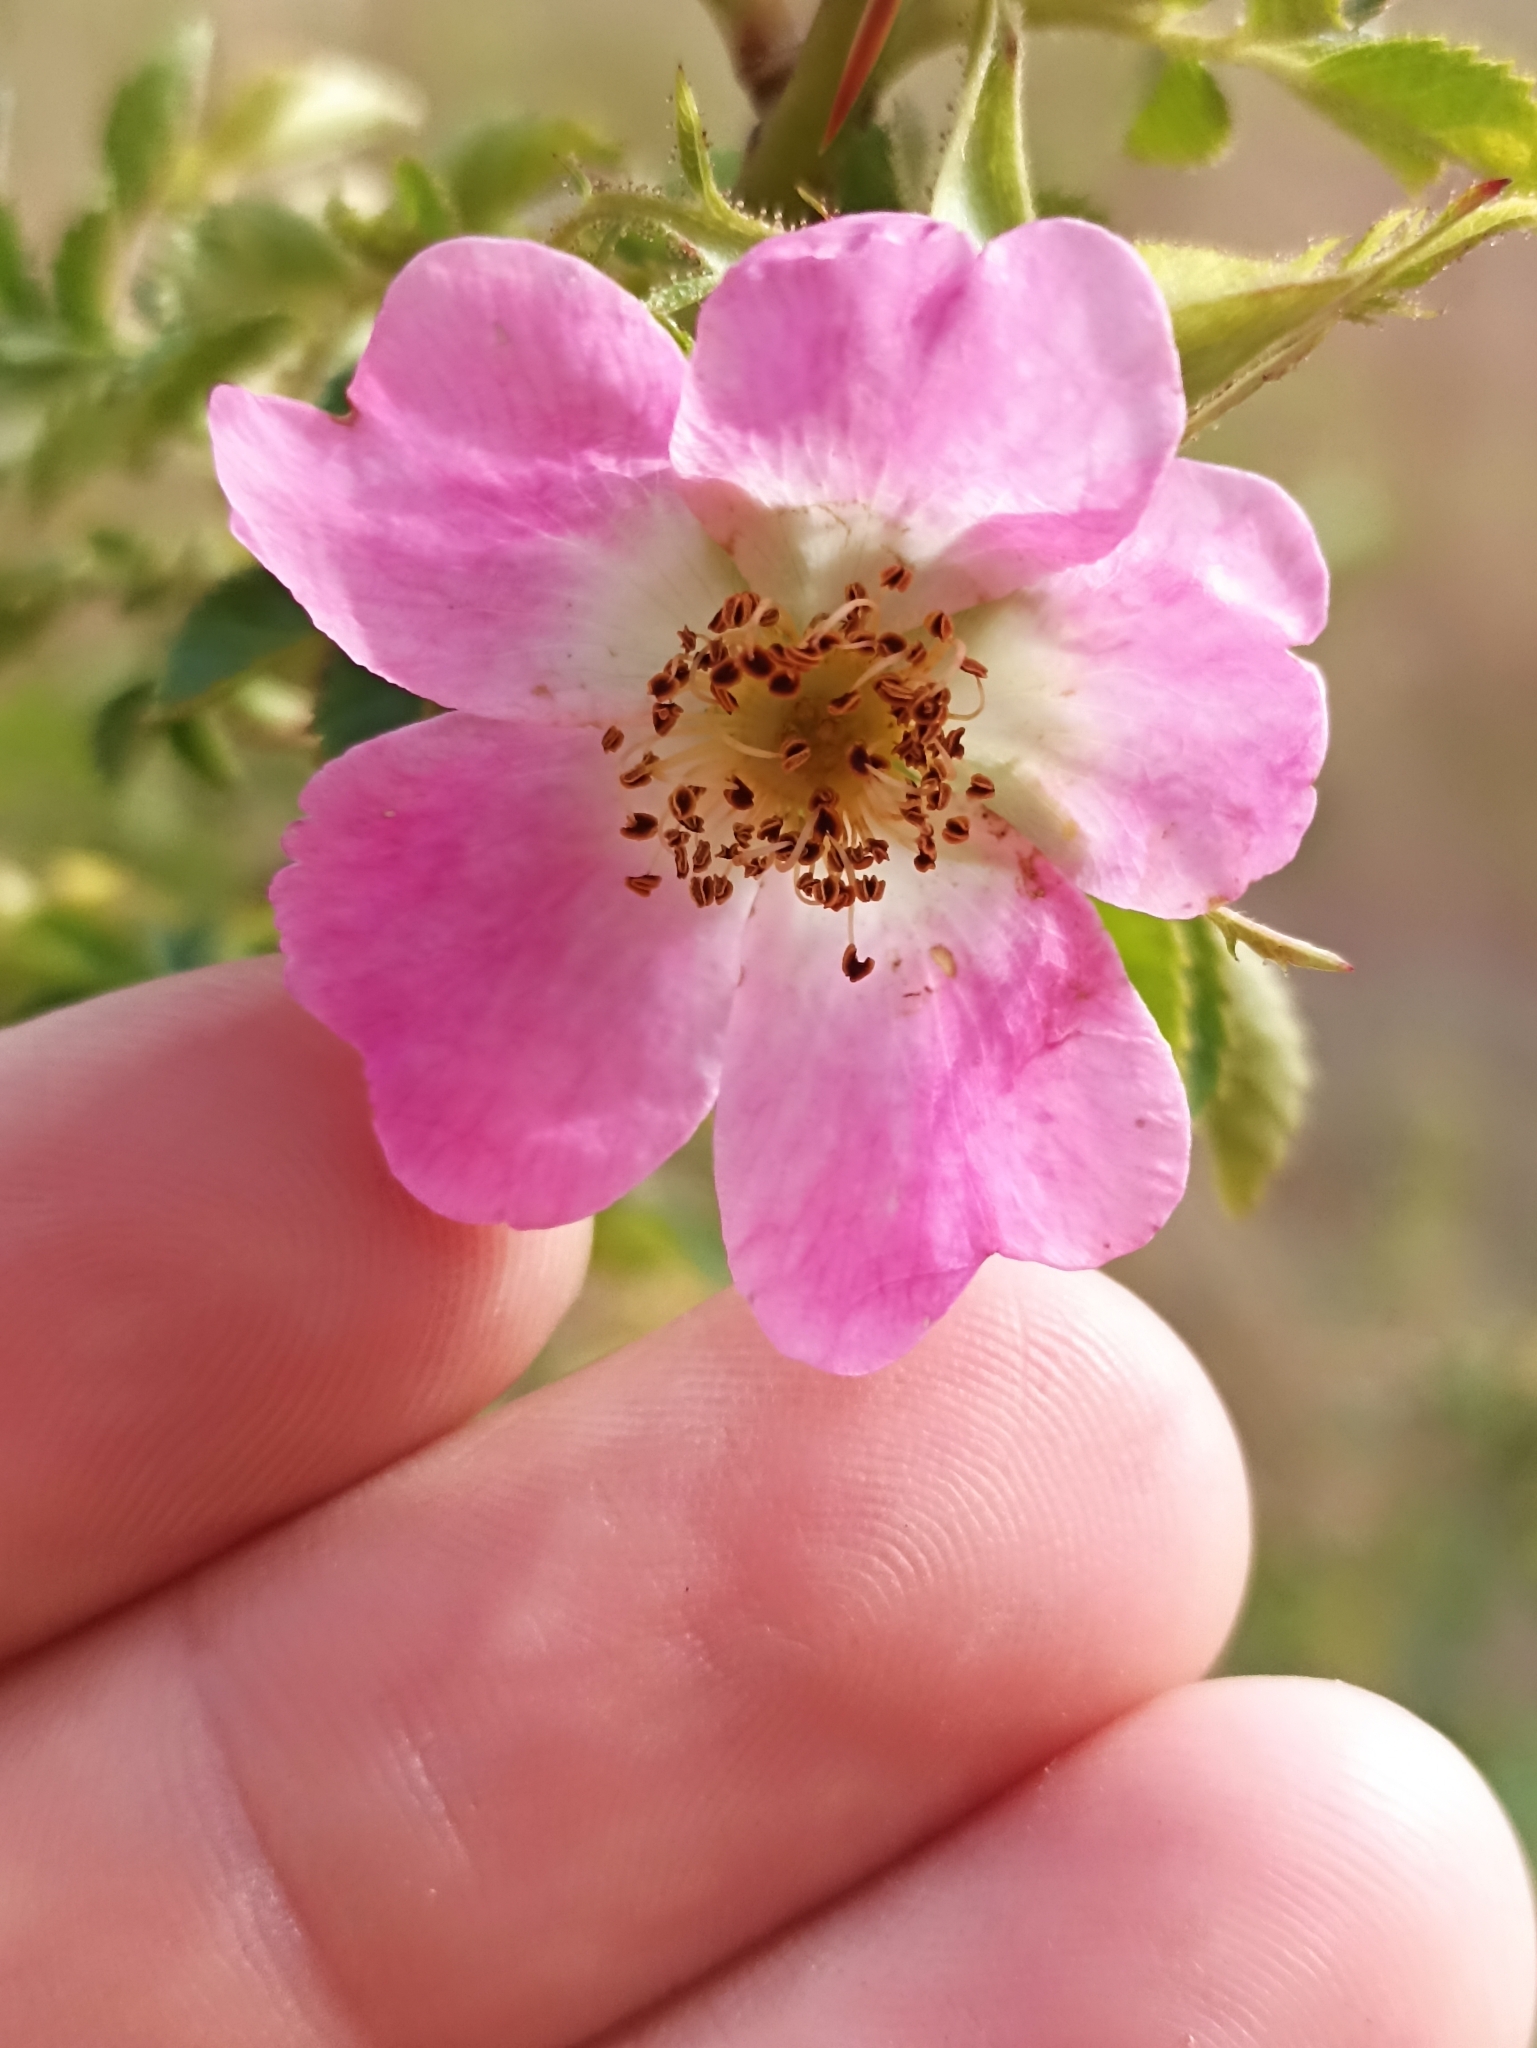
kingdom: Plantae
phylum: Tracheophyta
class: Magnoliopsida
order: Rosales
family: Rosaceae
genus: Rosa
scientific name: Rosa rubiginosa
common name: Sweet-briar
